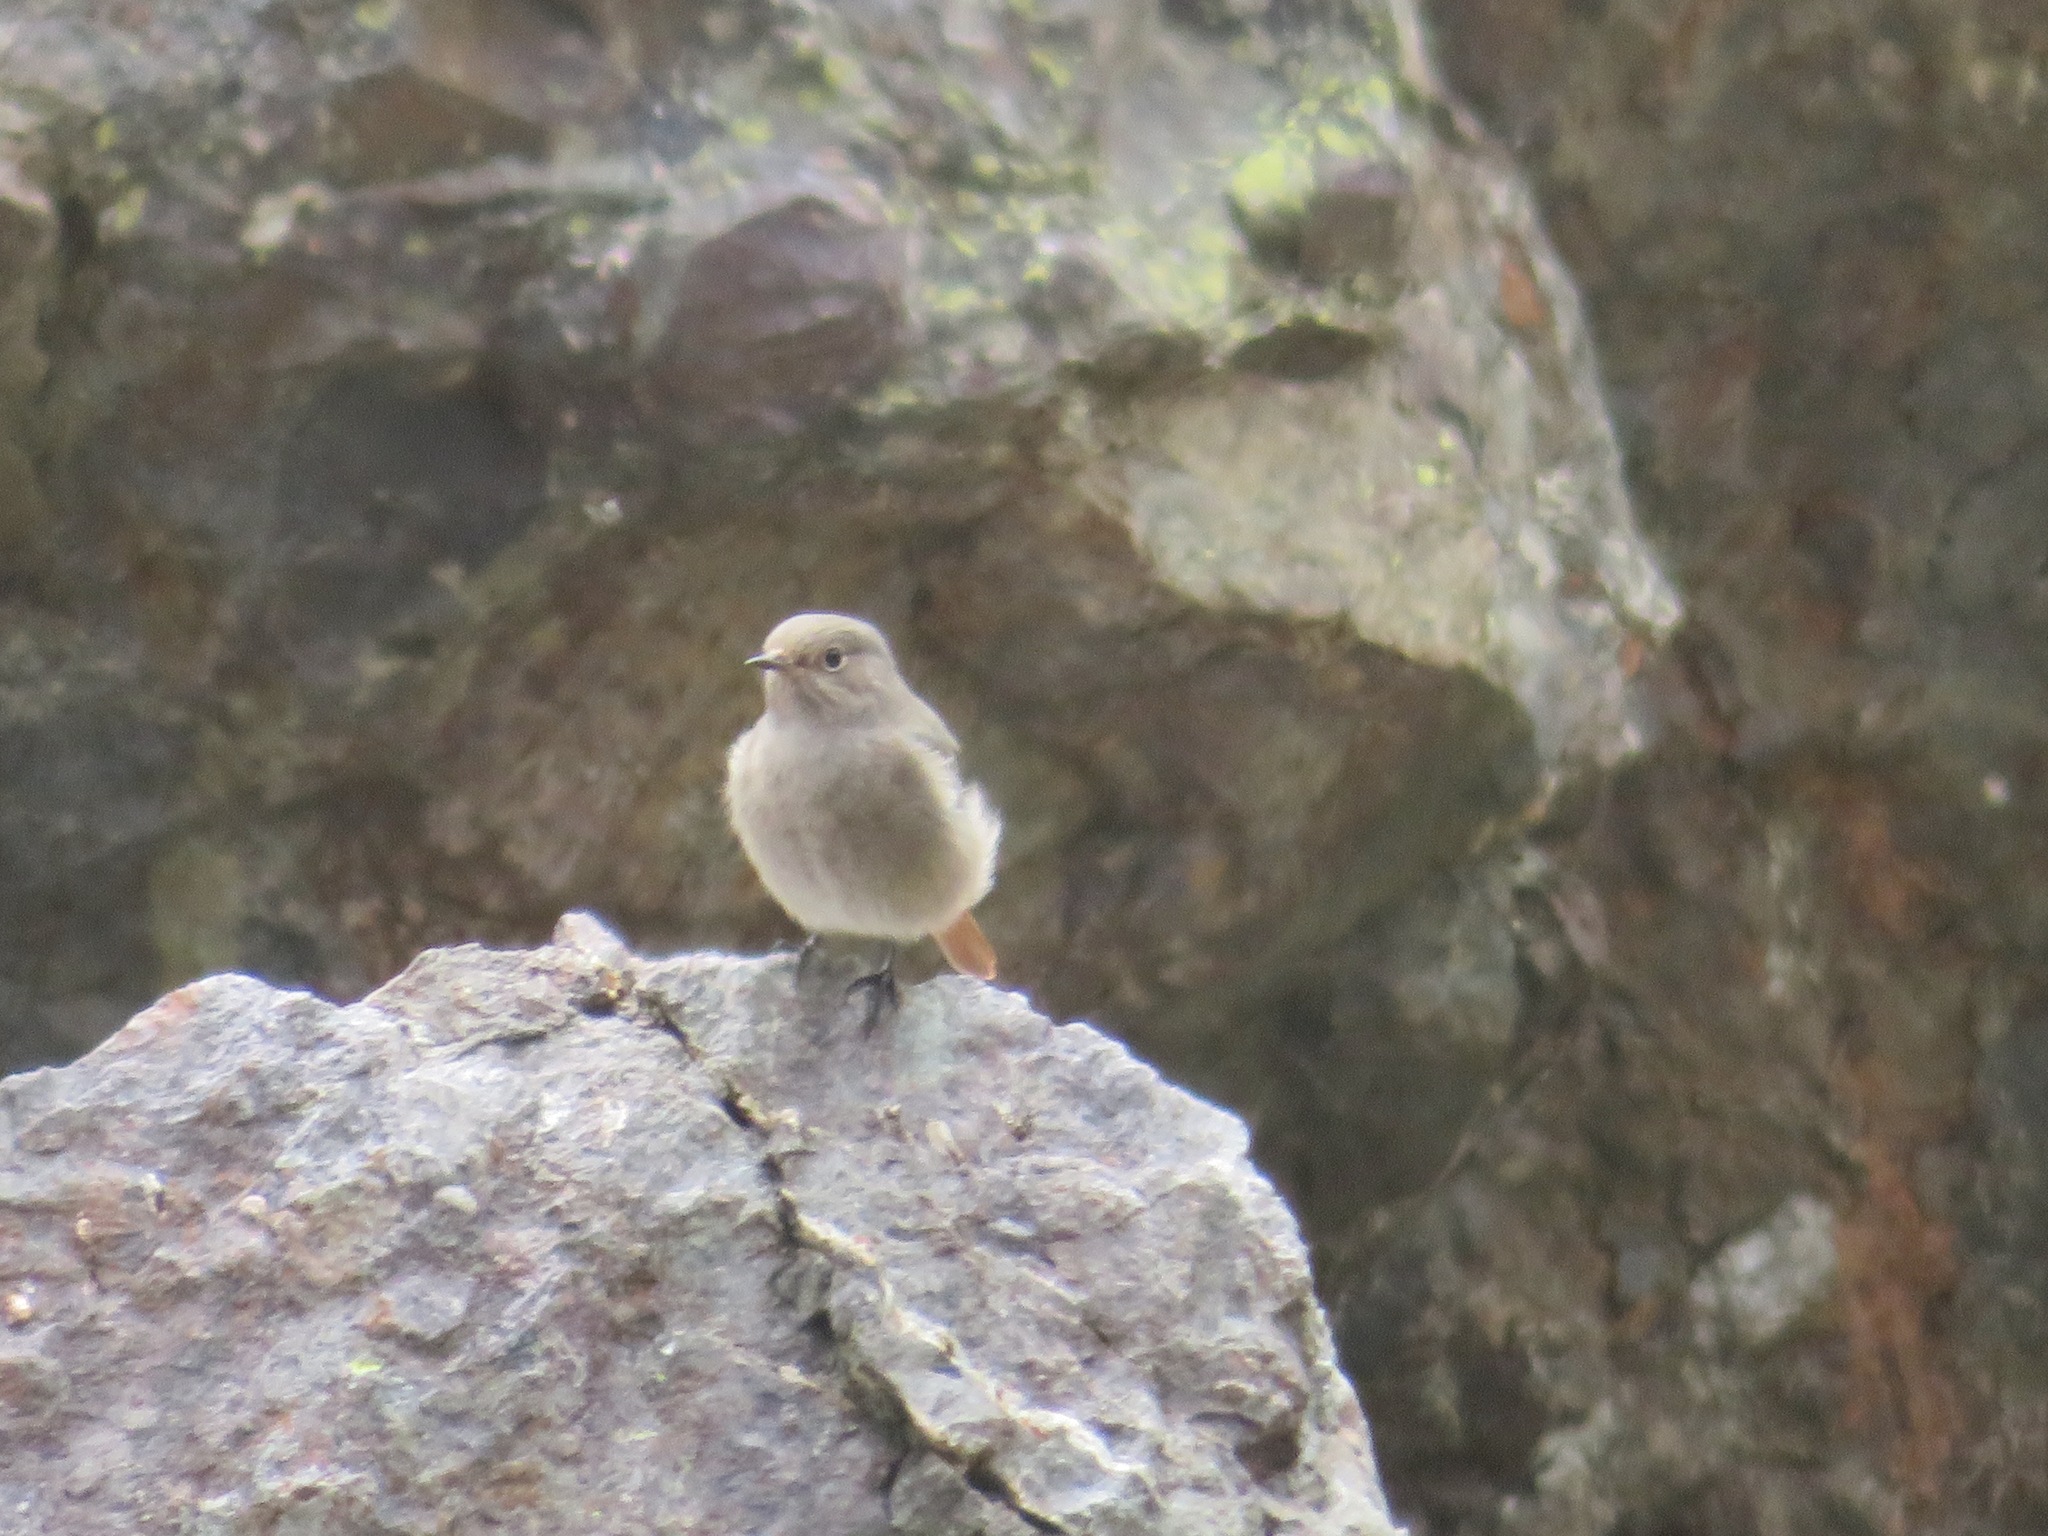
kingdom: Animalia
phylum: Chordata
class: Aves
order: Passeriformes
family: Muscicapidae
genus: Phoenicurus
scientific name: Phoenicurus ochruros
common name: Black redstart
